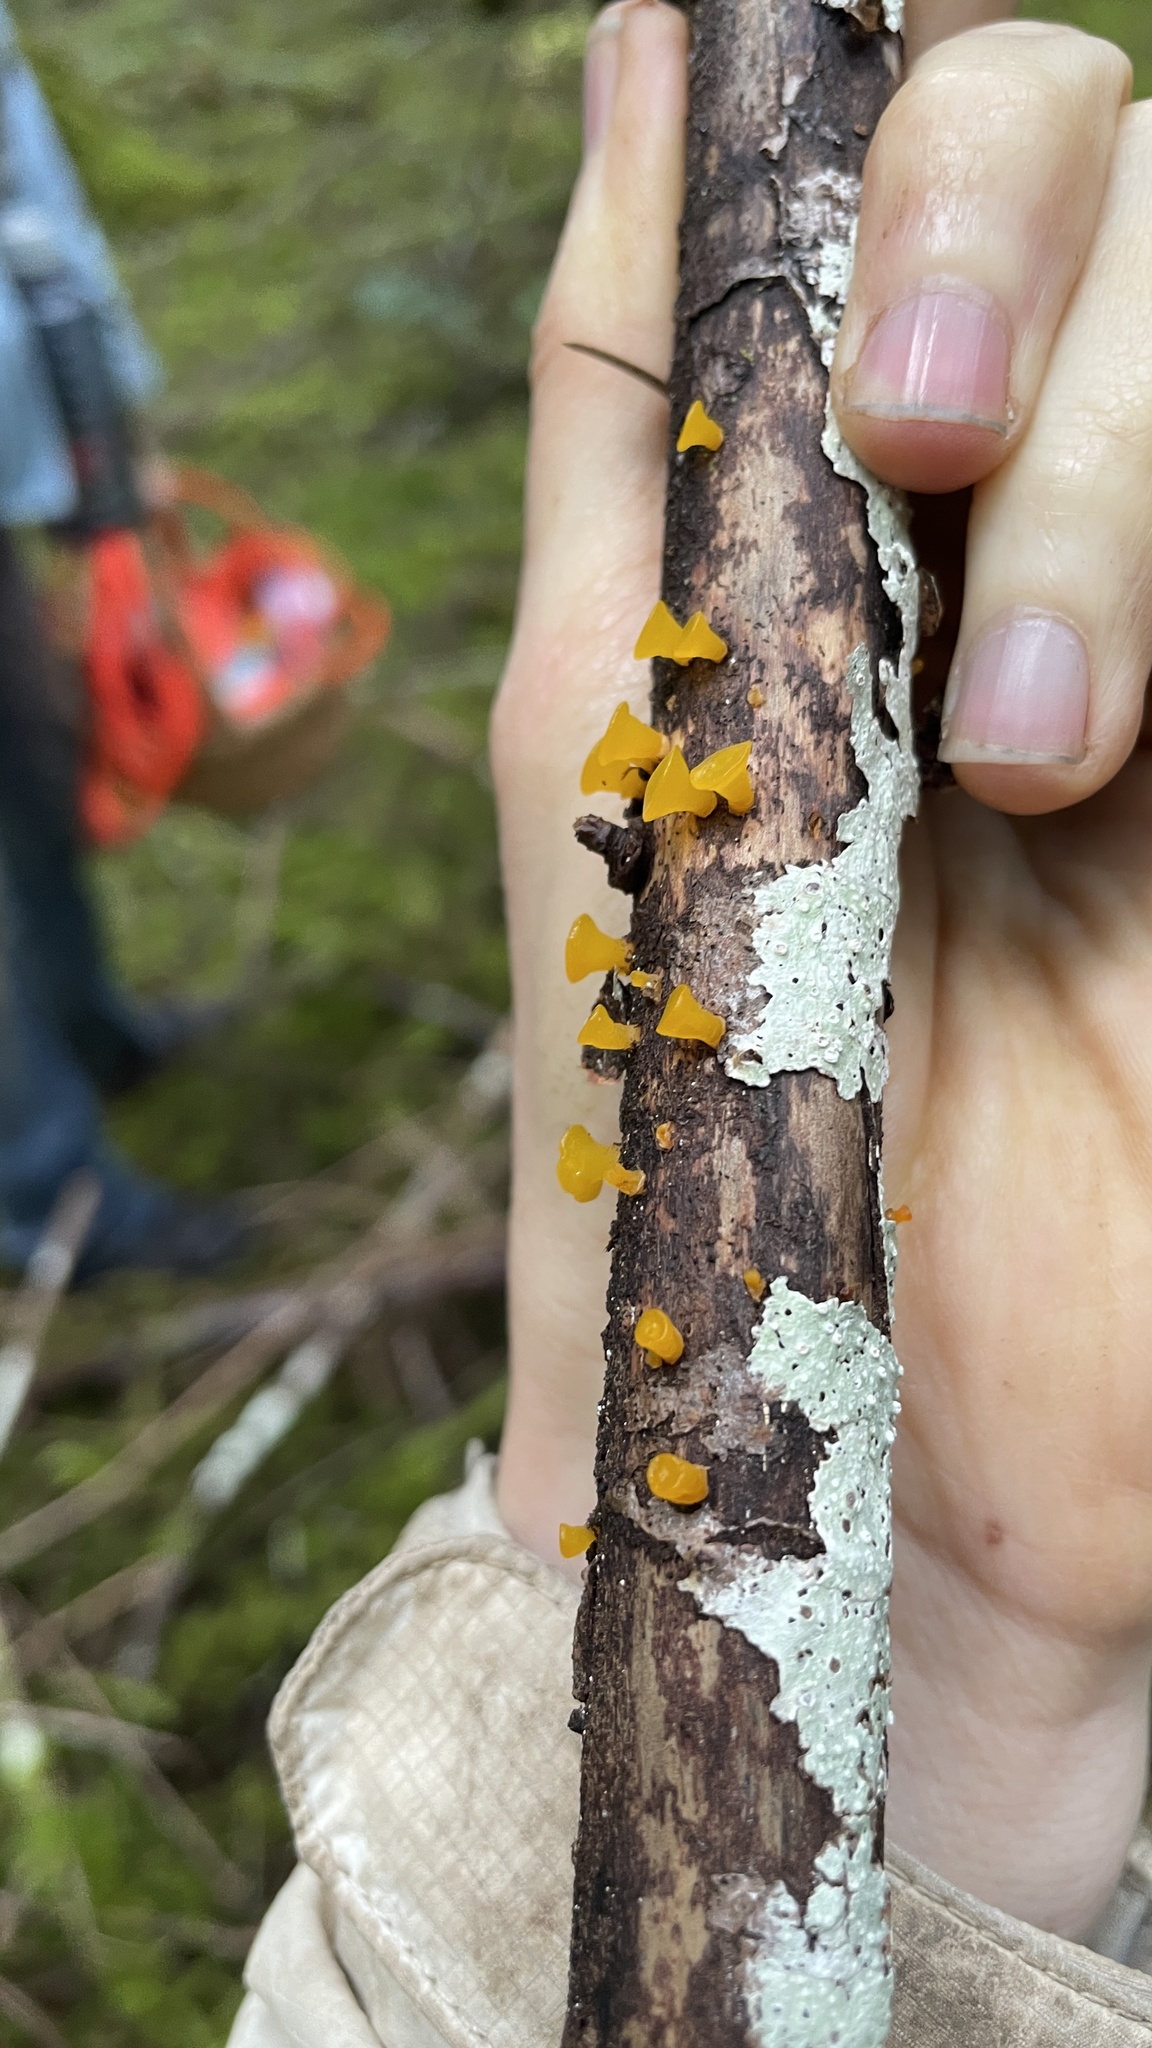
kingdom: Fungi
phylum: Basidiomycota
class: Dacrymycetes
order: Dacrymycetales
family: Dacrymycetaceae
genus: Guepiniopsis
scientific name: Guepiniopsis alpina
